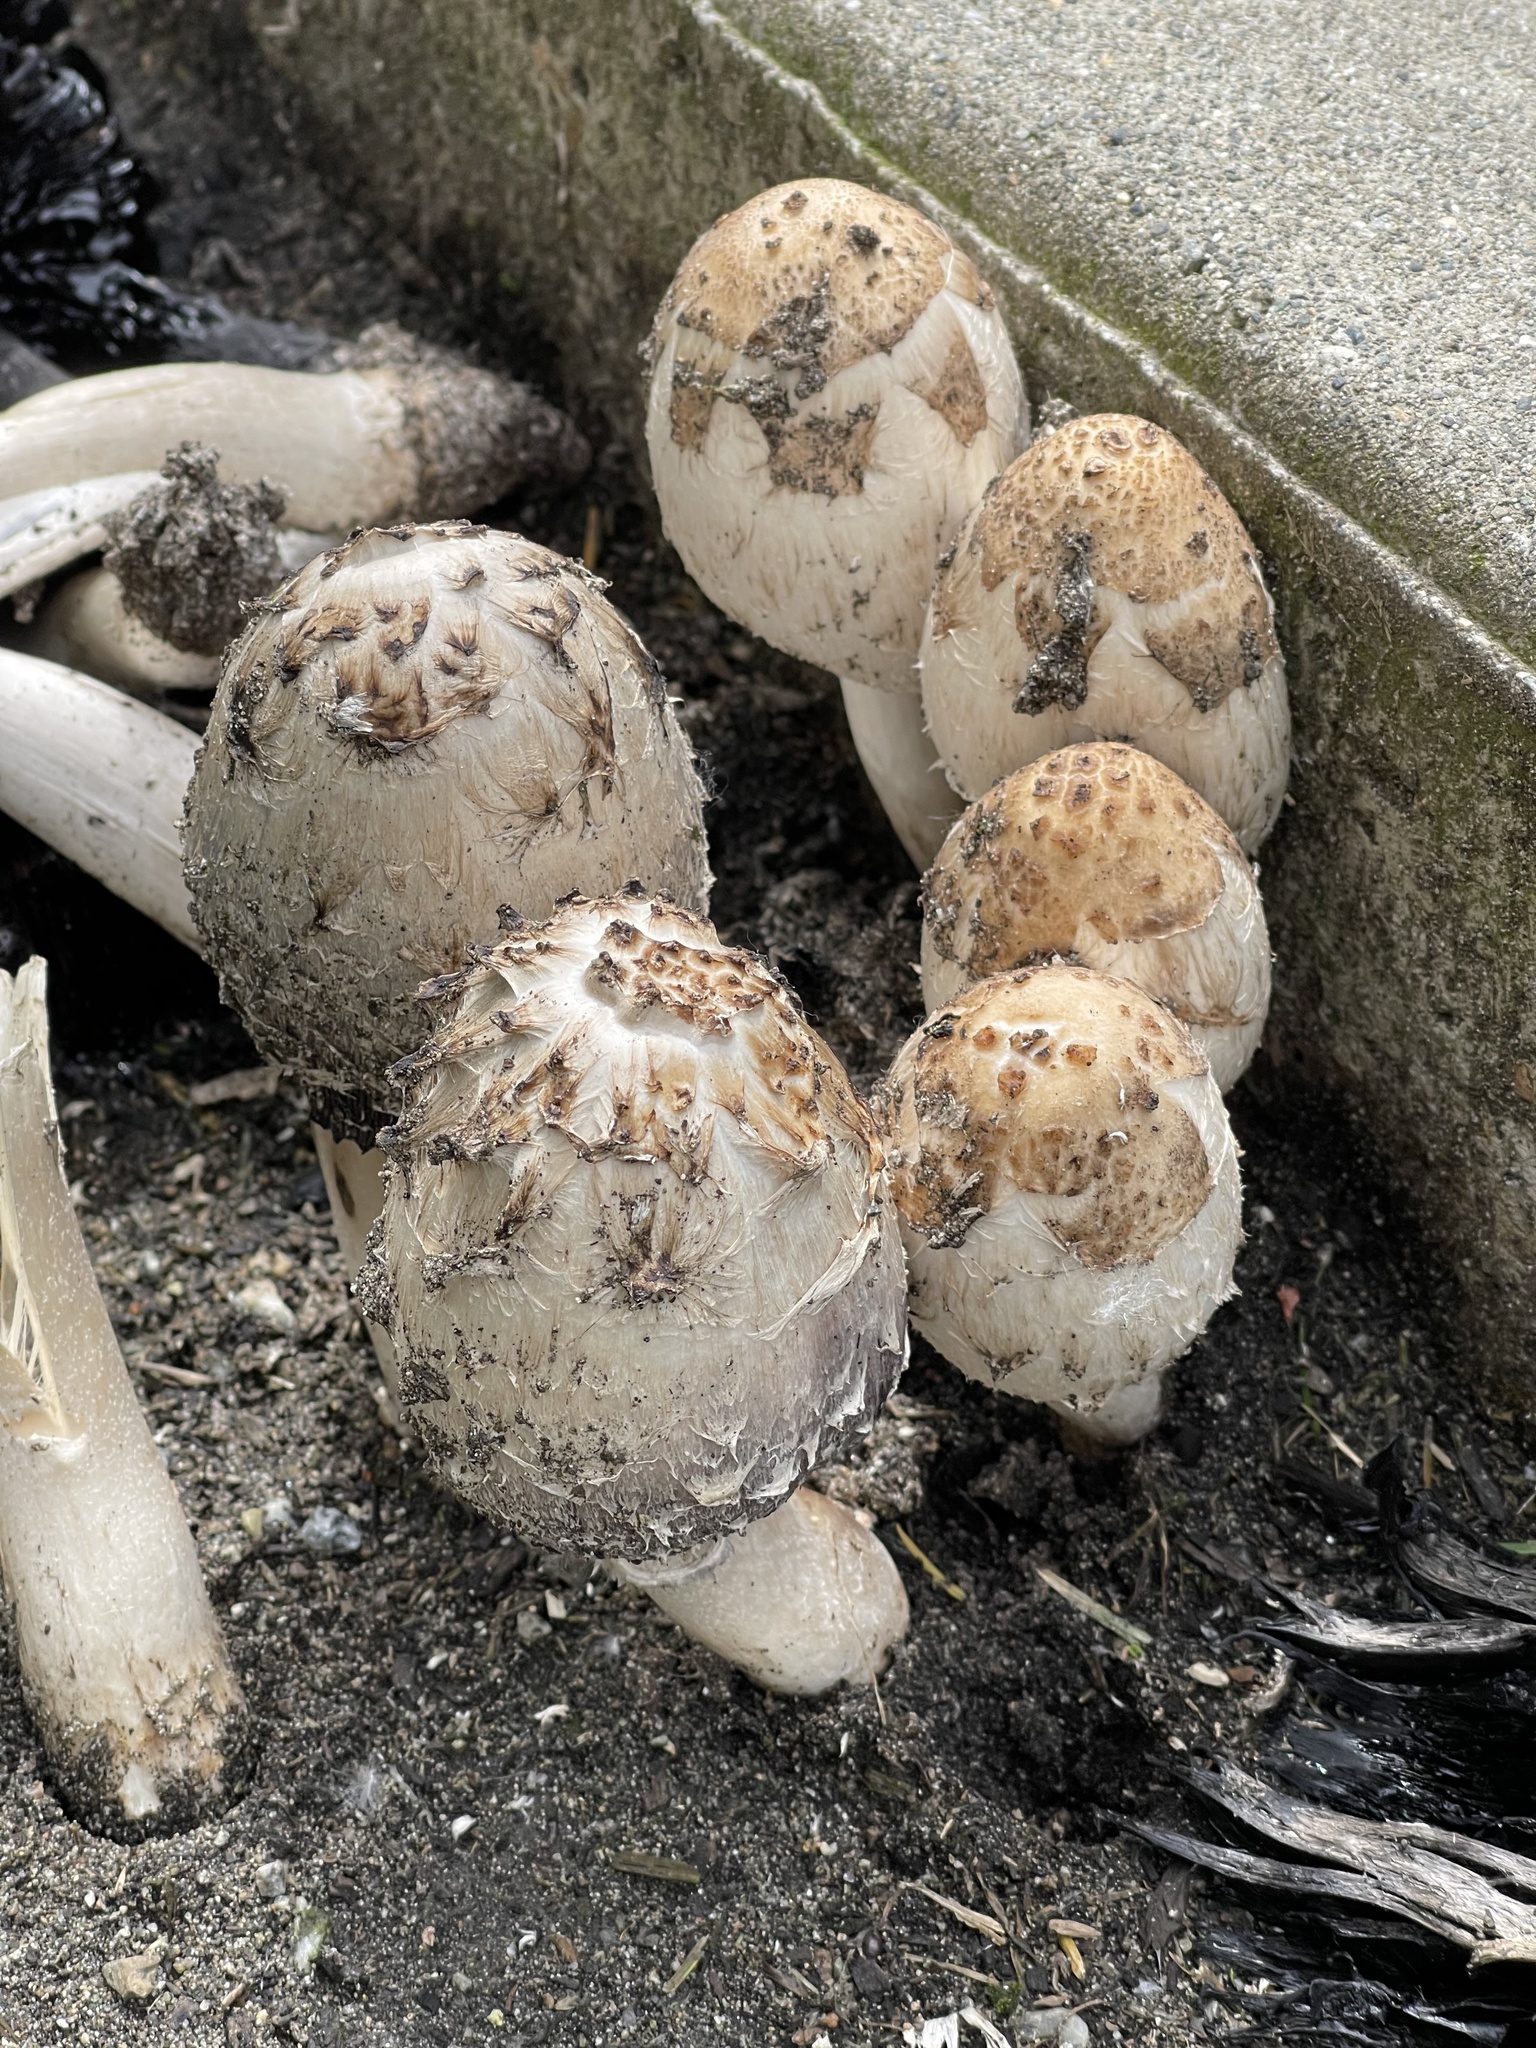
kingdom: Fungi
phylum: Basidiomycota
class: Agaricomycetes
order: Agaricales
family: Psathyrellaceae
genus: Coprinopsis
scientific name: Coprinopsis variegata
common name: Scaly ink cap
